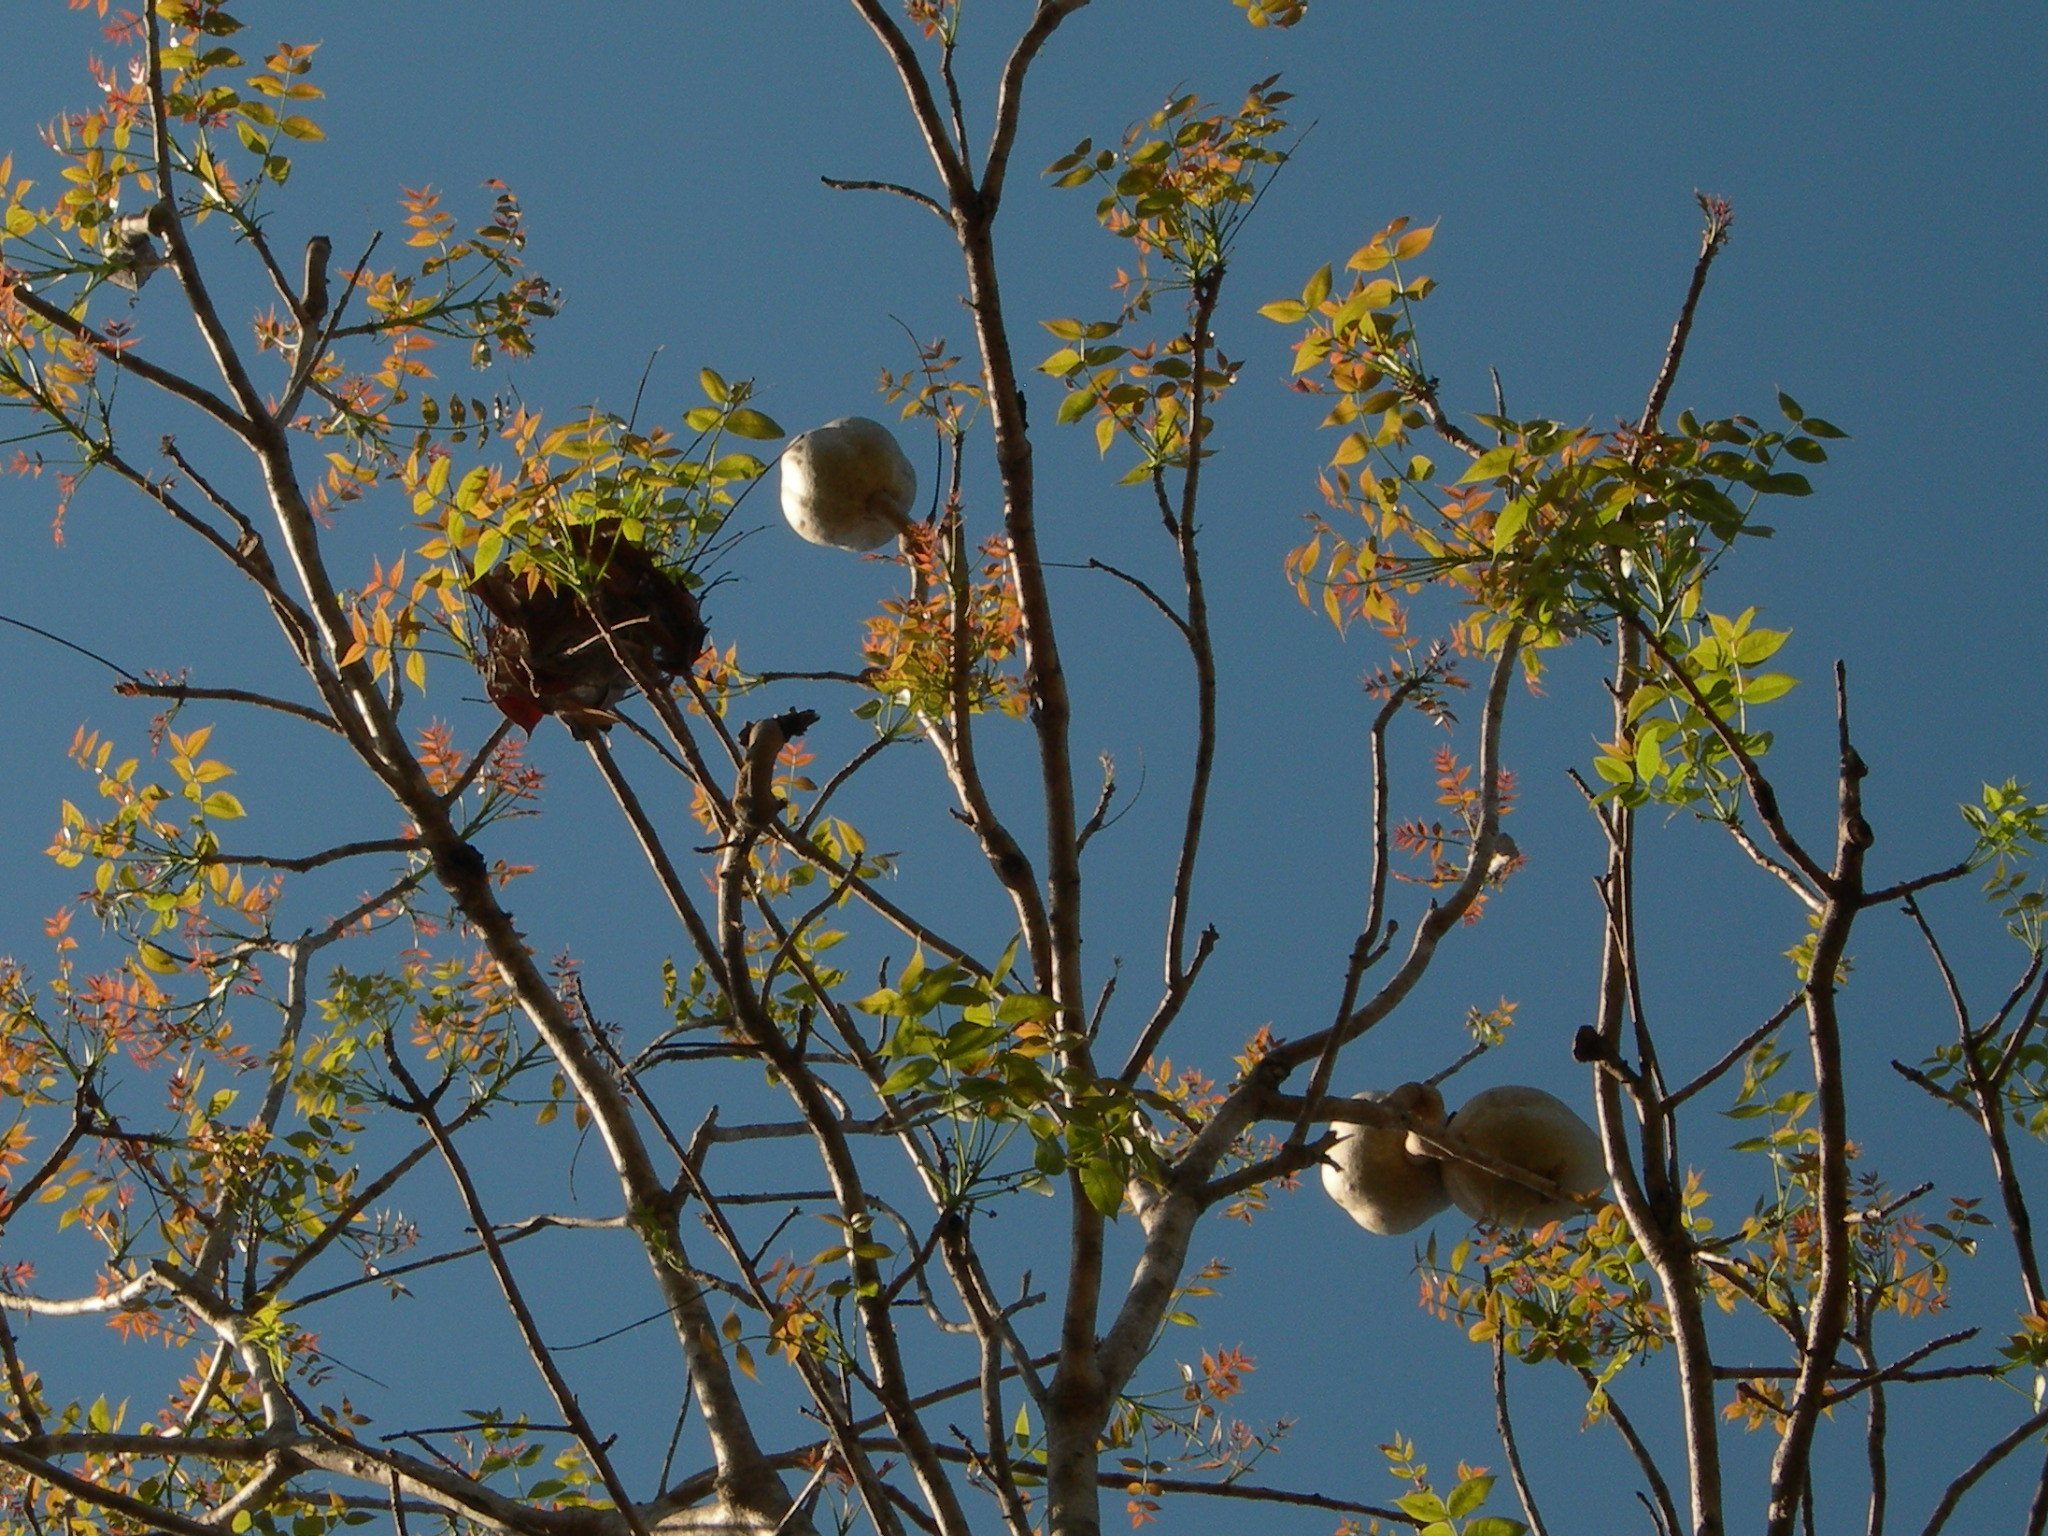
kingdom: Plantae
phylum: Tracheophyta
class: Magnoliopsida
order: Sapindales
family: Meliaceae
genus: Swietenia
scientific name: Swietenia humilis
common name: Pacific coast mahogany
